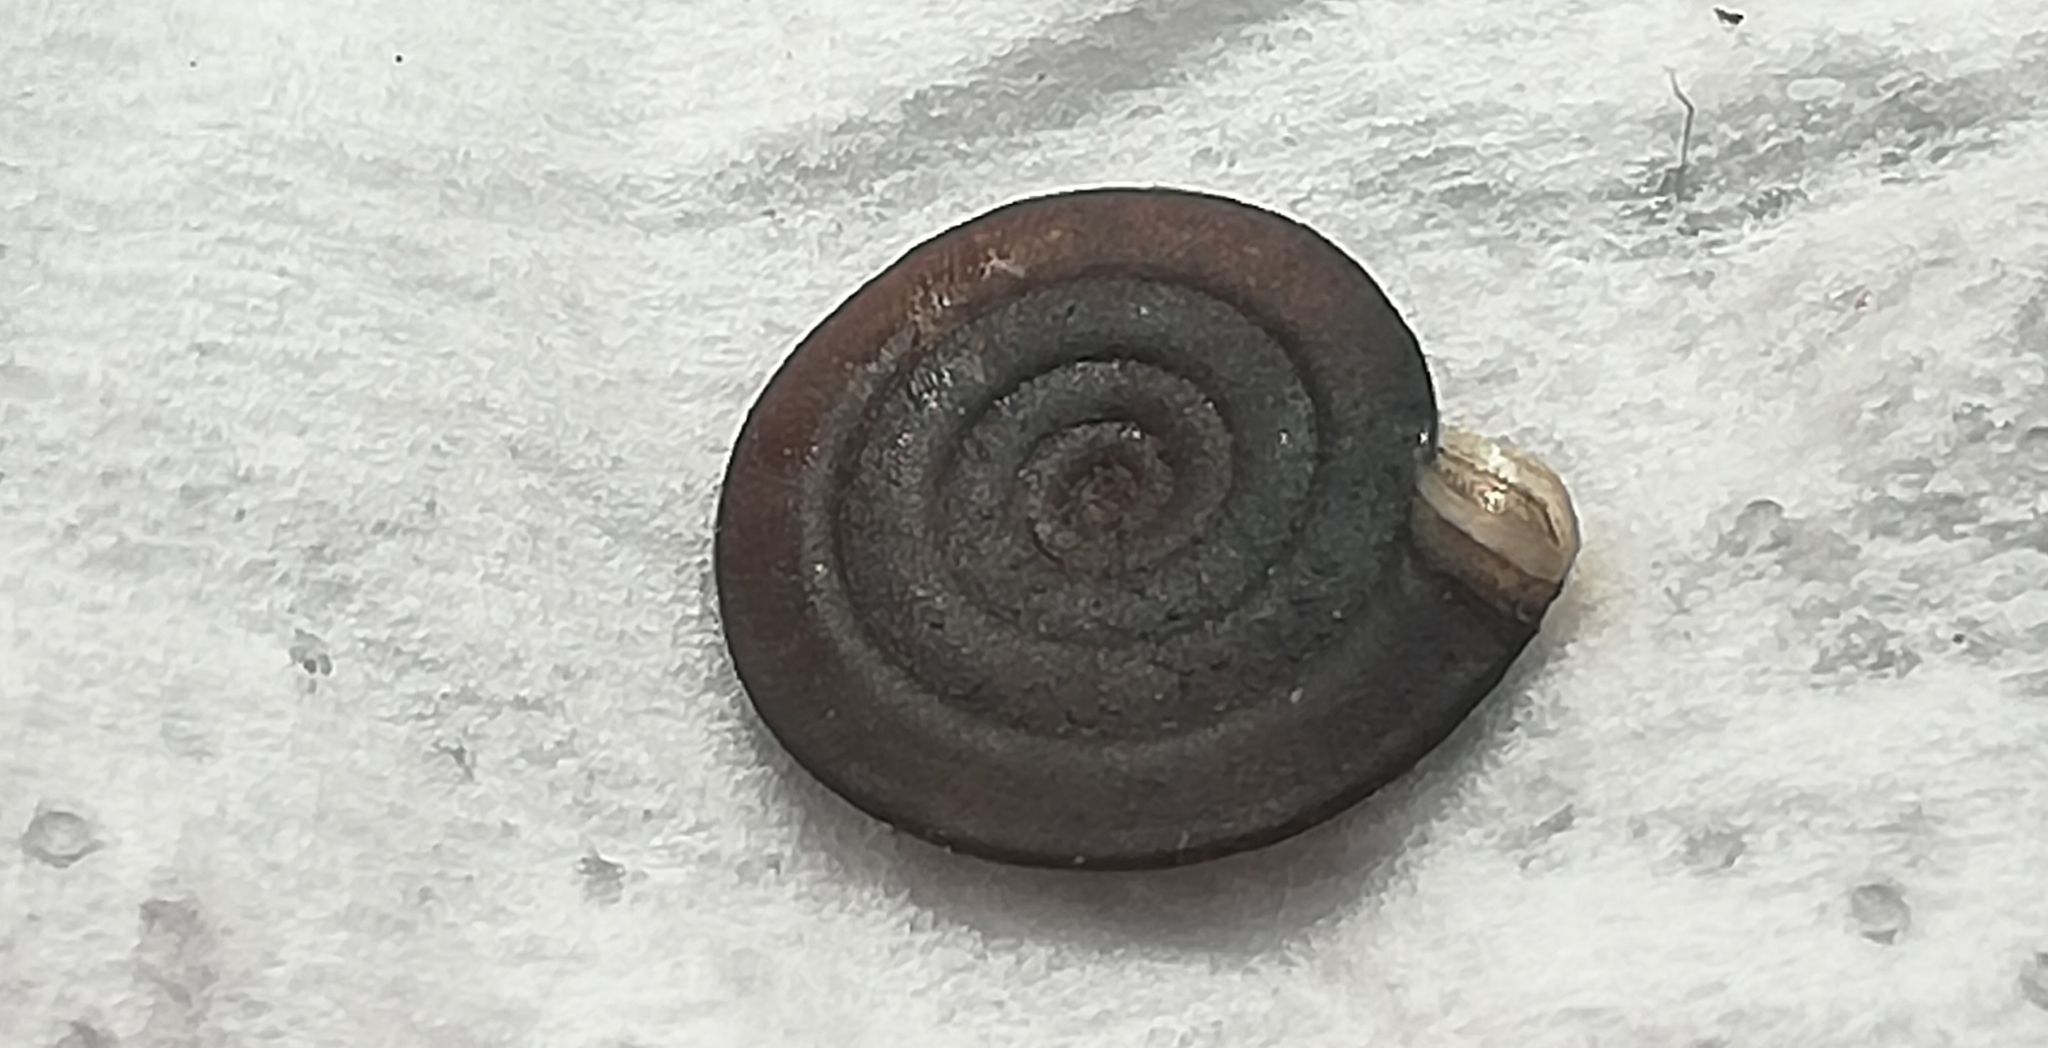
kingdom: Animalia
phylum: Mollusca
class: Gastropoda
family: Planorbidae
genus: Anisus
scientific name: Anisus vortex
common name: Whirlpool ram's horn snail
